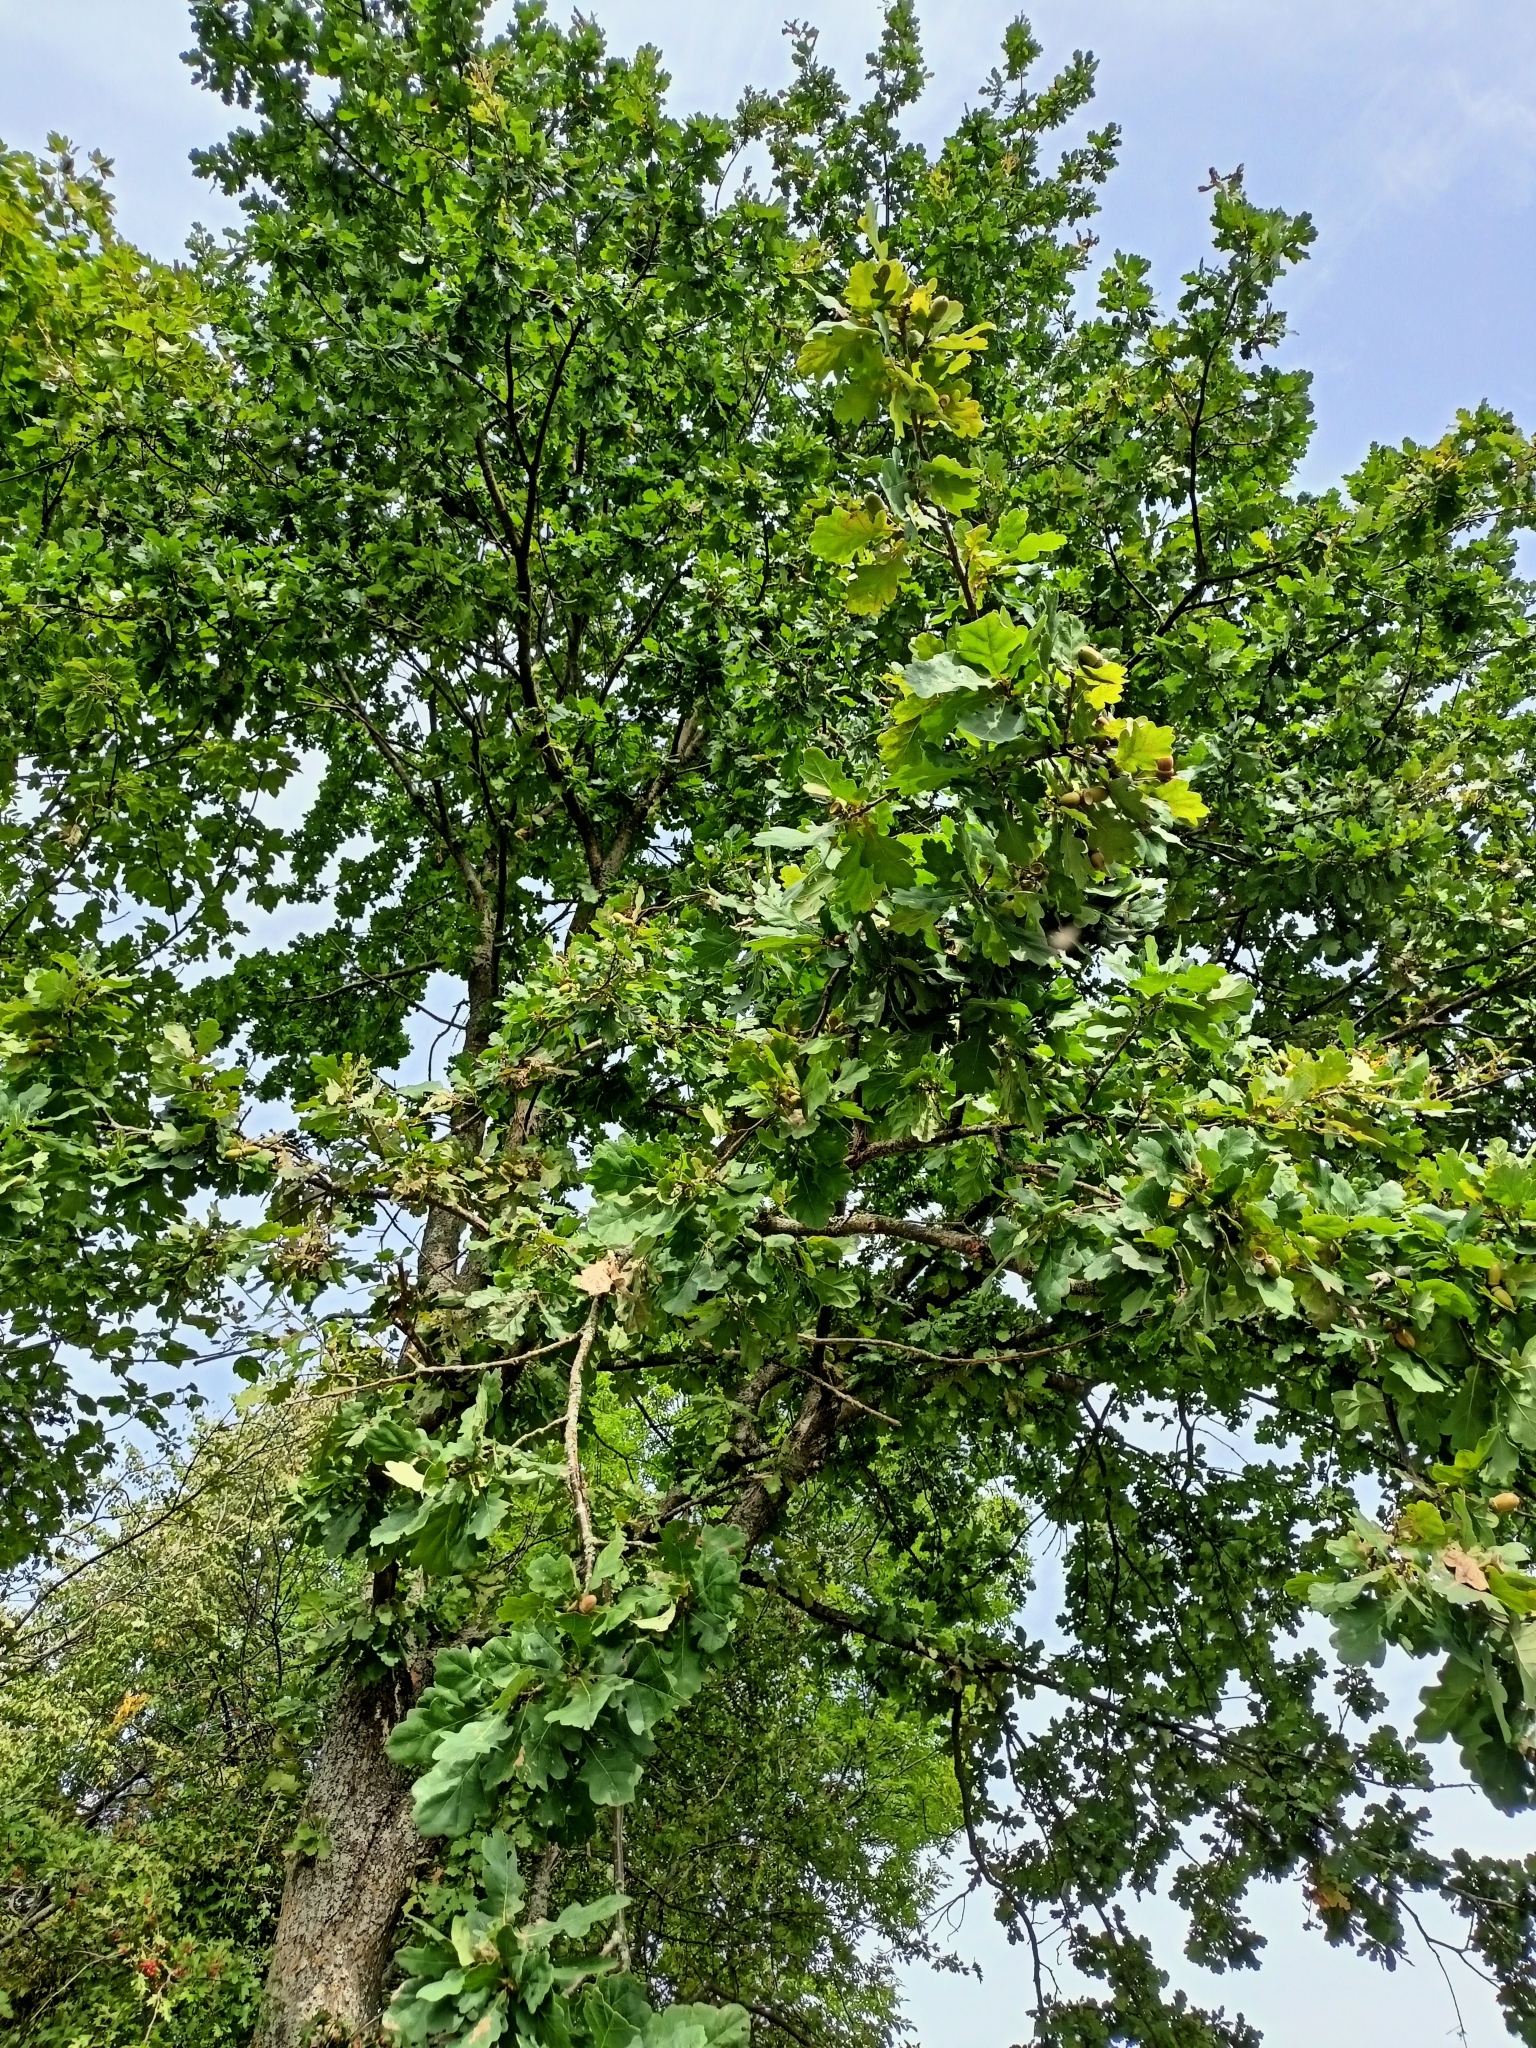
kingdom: Plantae
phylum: Tracheophyta
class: Magnoliopsida
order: Fagales
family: Fagaceae
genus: Quercus
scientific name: Quercus robur
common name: Pedunculate oak
